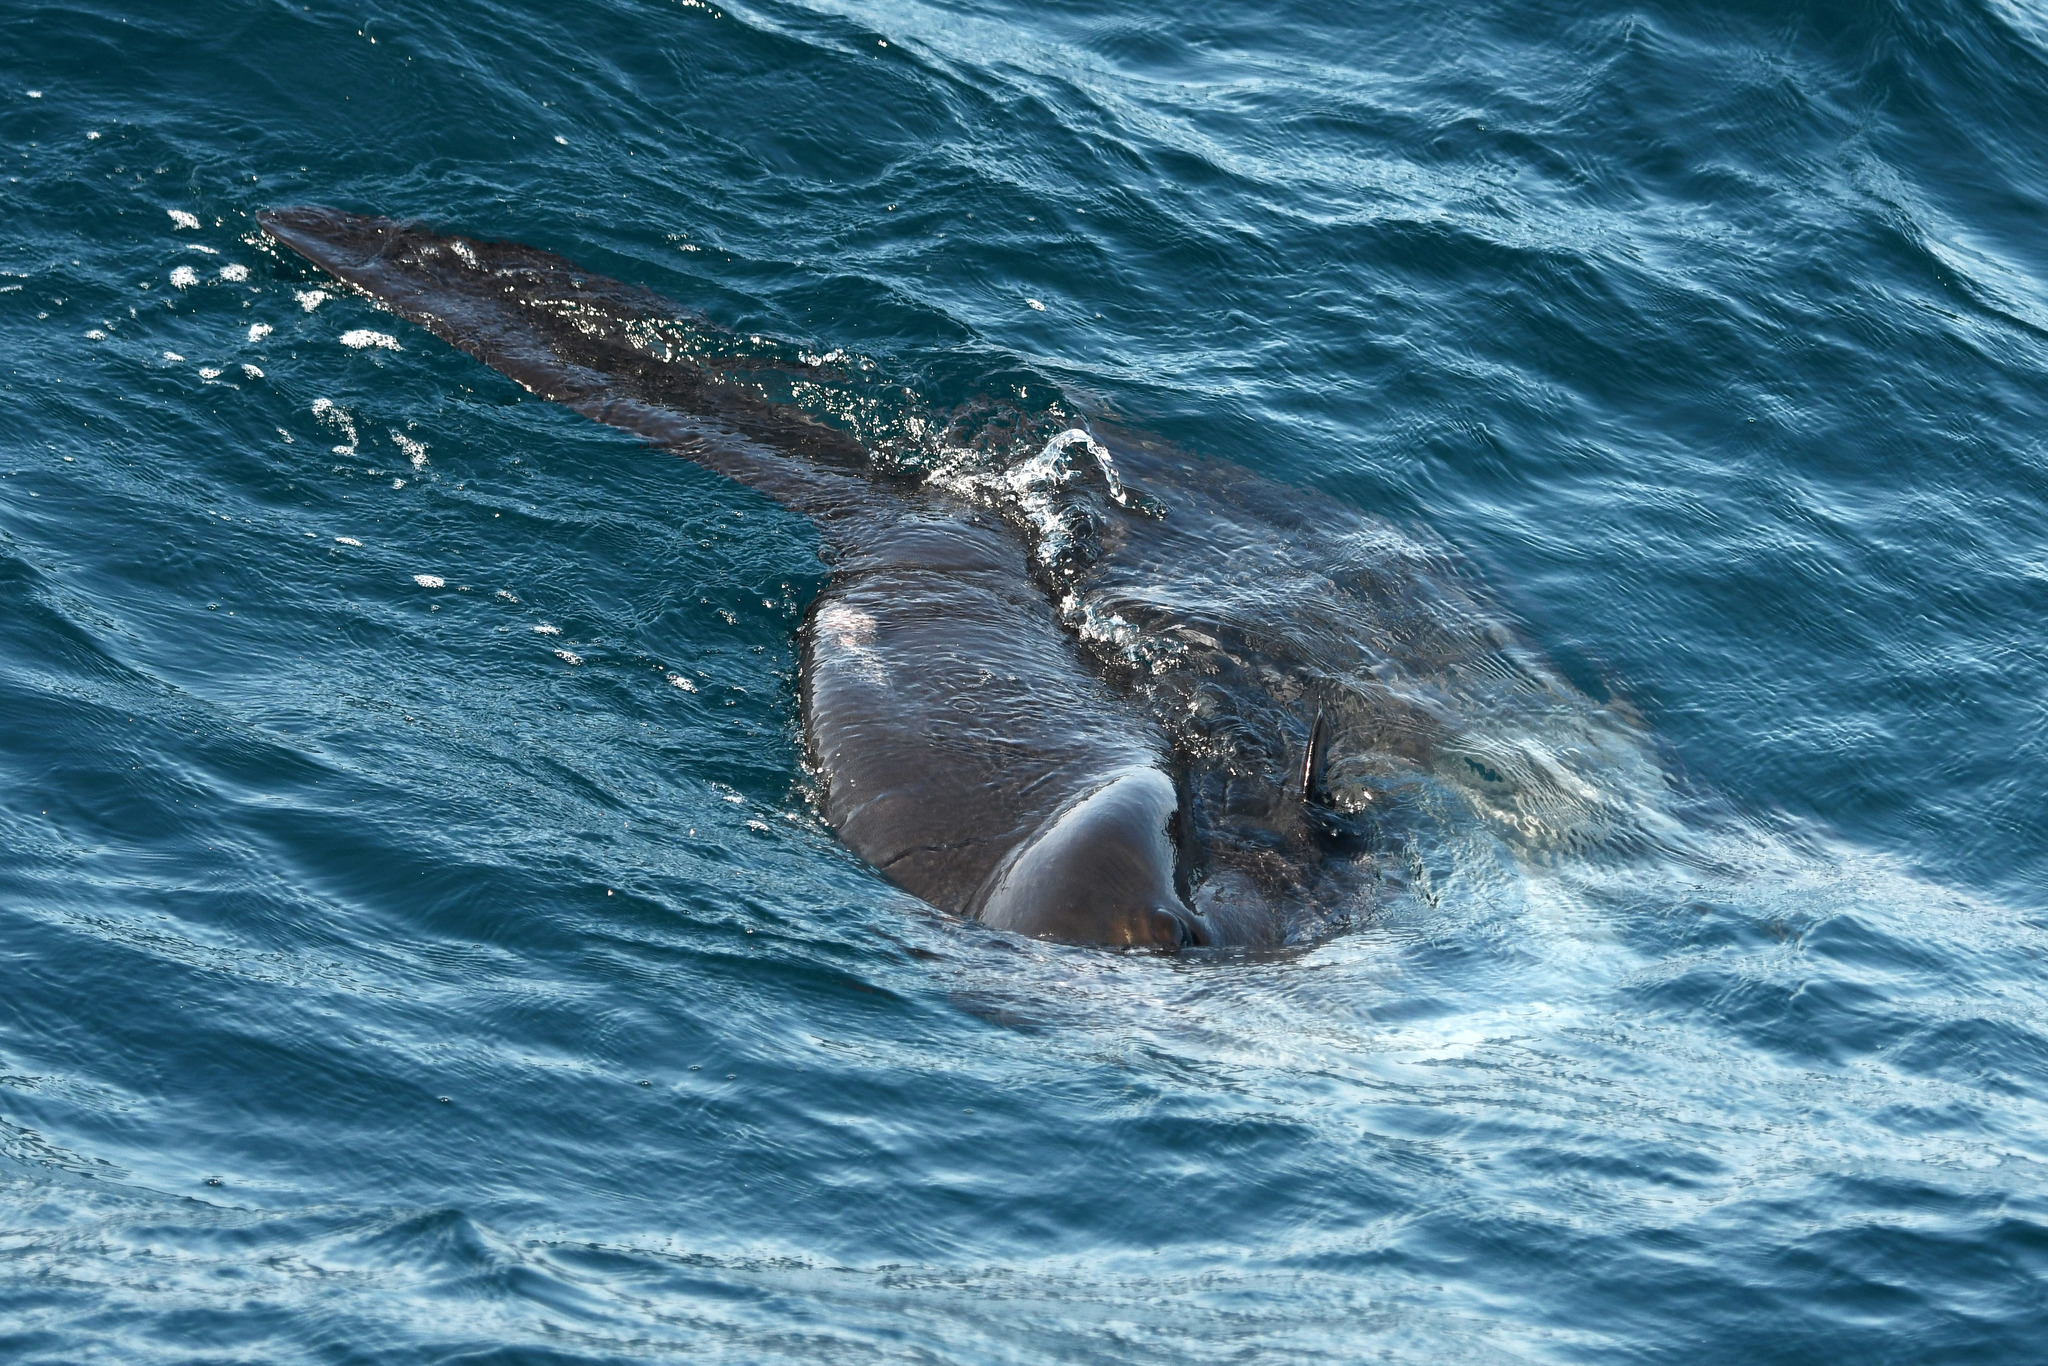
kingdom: Animalia
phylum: Chordata
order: Tetraodontiformes
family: Molidae
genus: Mola
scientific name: Mola mola
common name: Ocean sunfish
